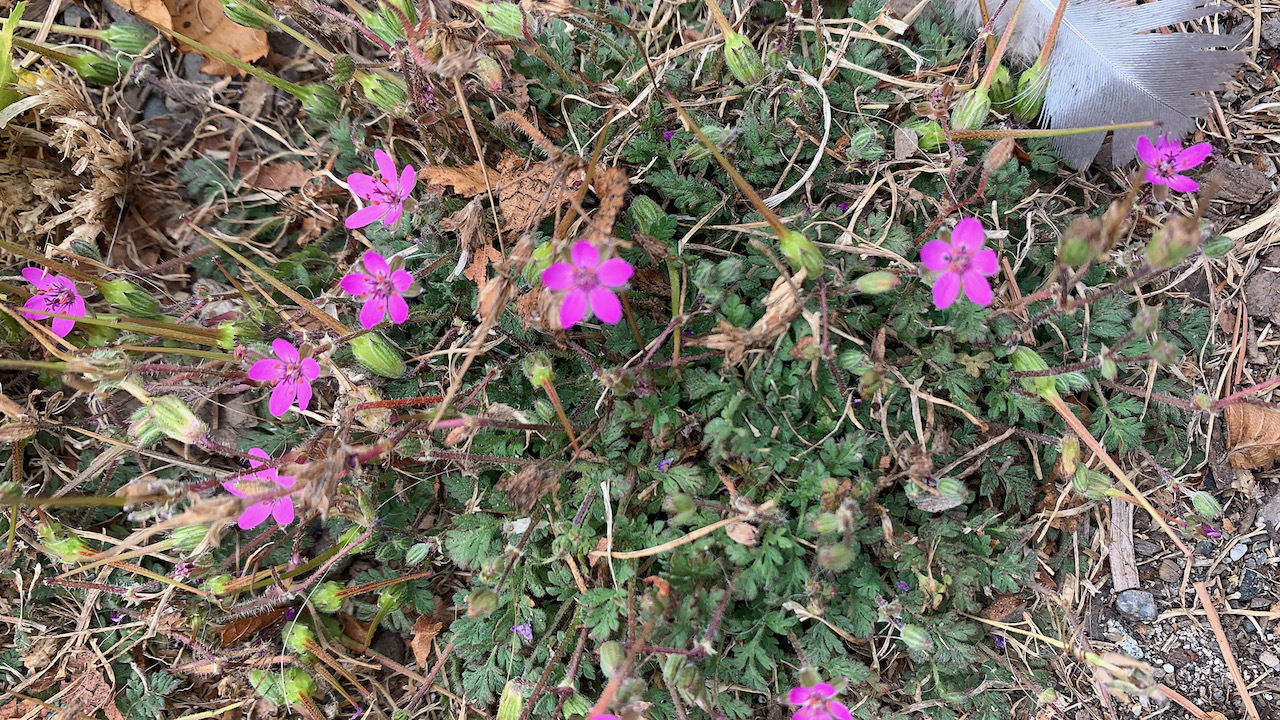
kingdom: Plantae
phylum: Tracheophyta
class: Magnoliopsida
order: Geraniales
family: Geraniaceae
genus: Erodium
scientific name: Erodium cicutarium
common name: Common stork's-bill
